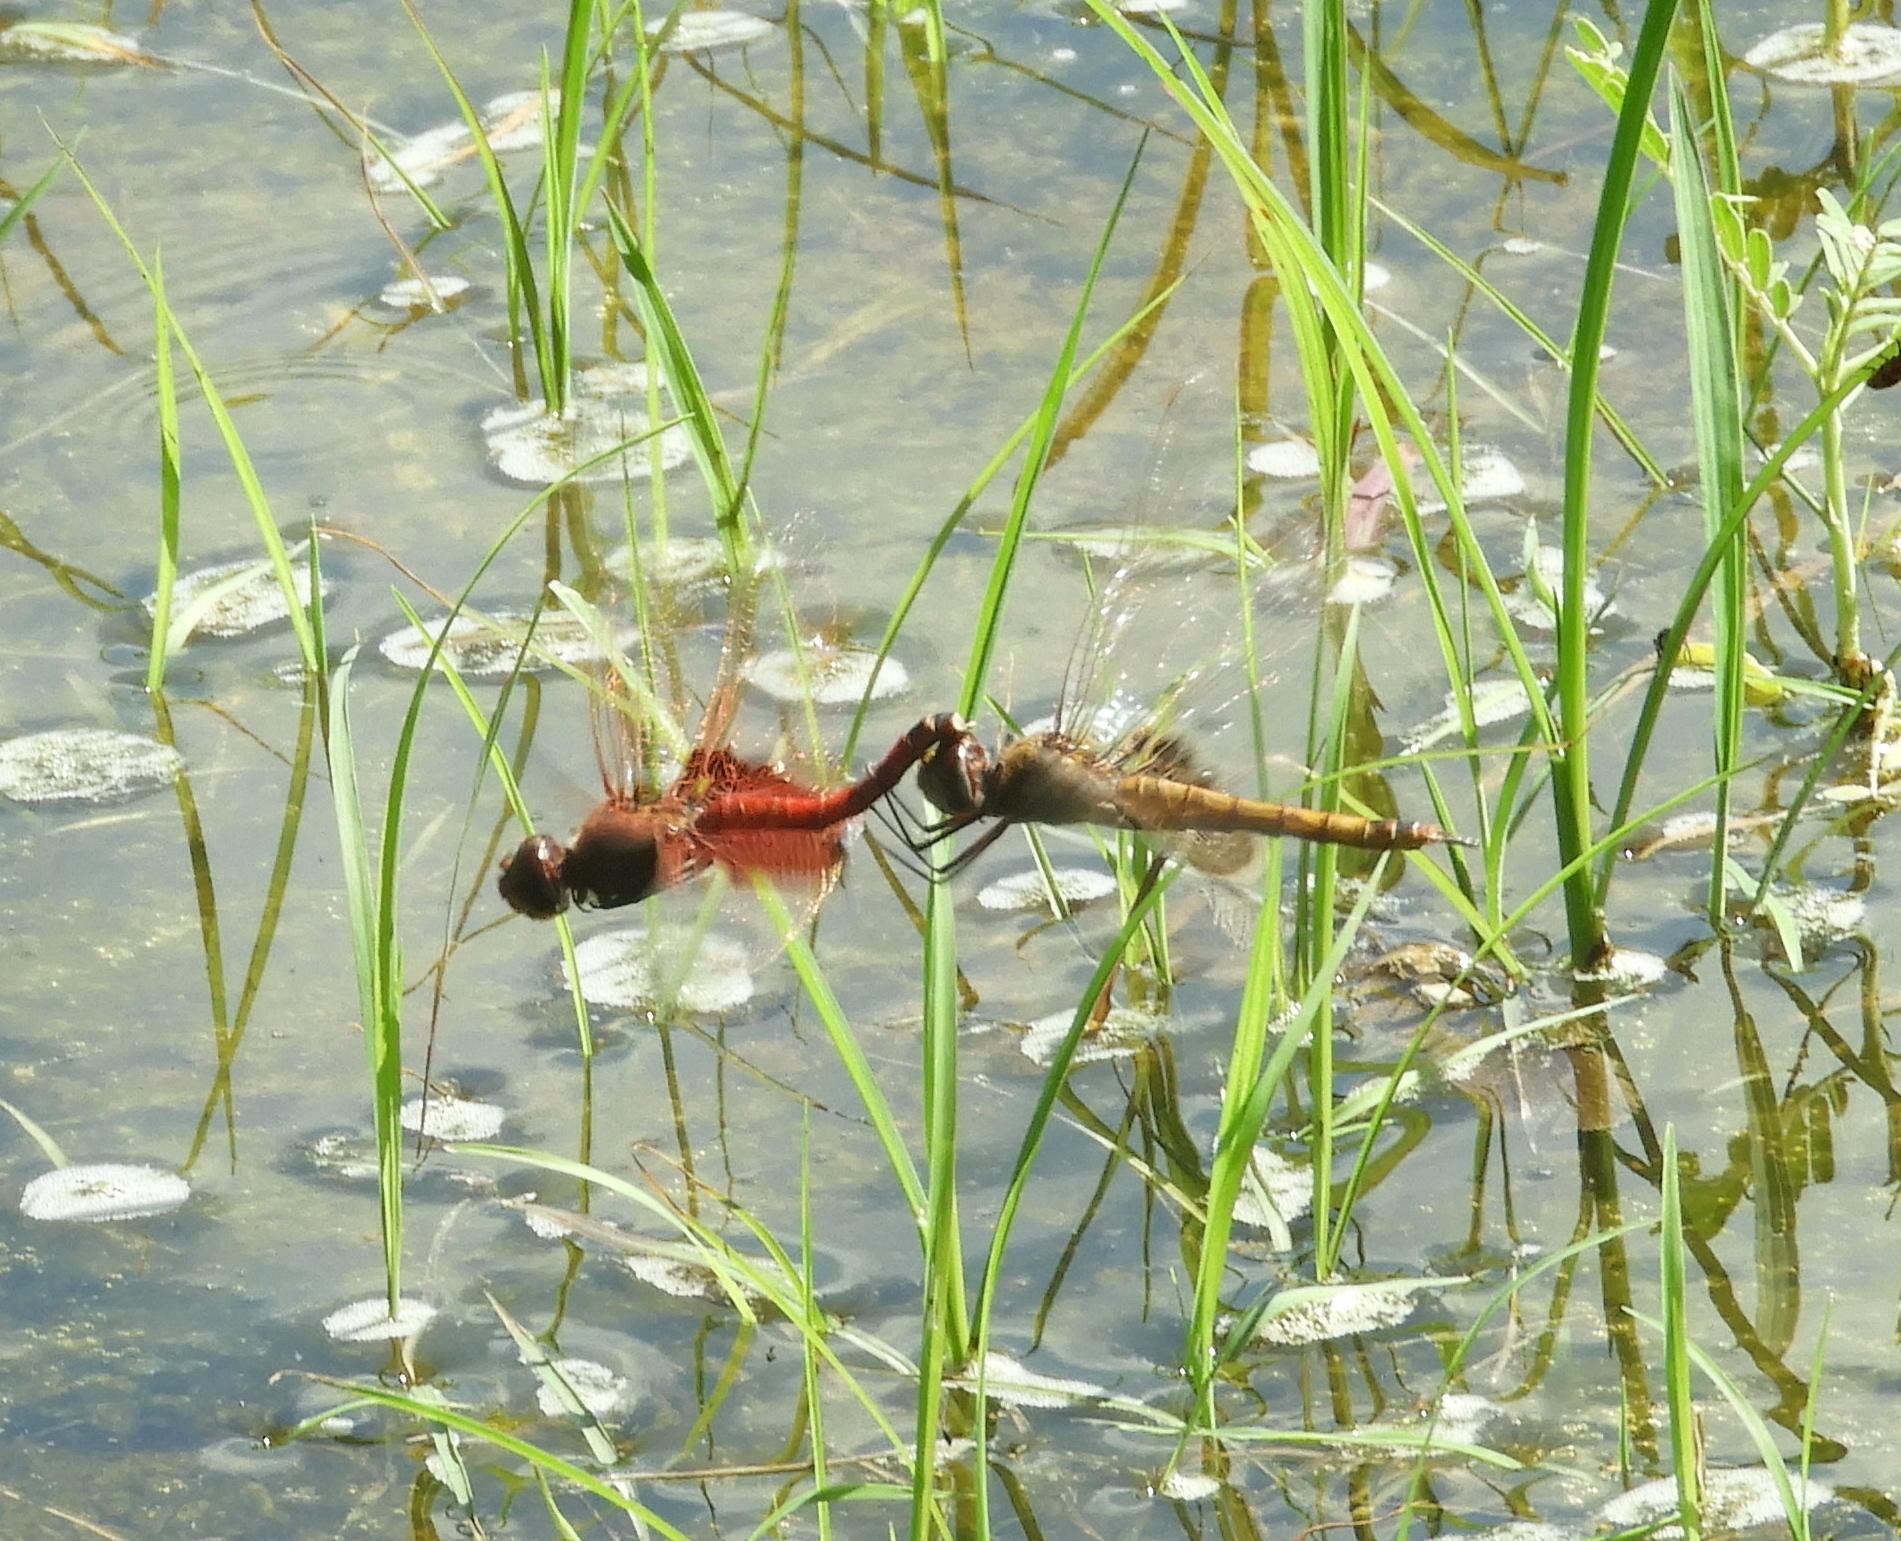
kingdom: Animalia
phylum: Arthropoda
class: Insecta
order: Odonata
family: Libellulidae
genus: Tramea
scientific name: Tramea
